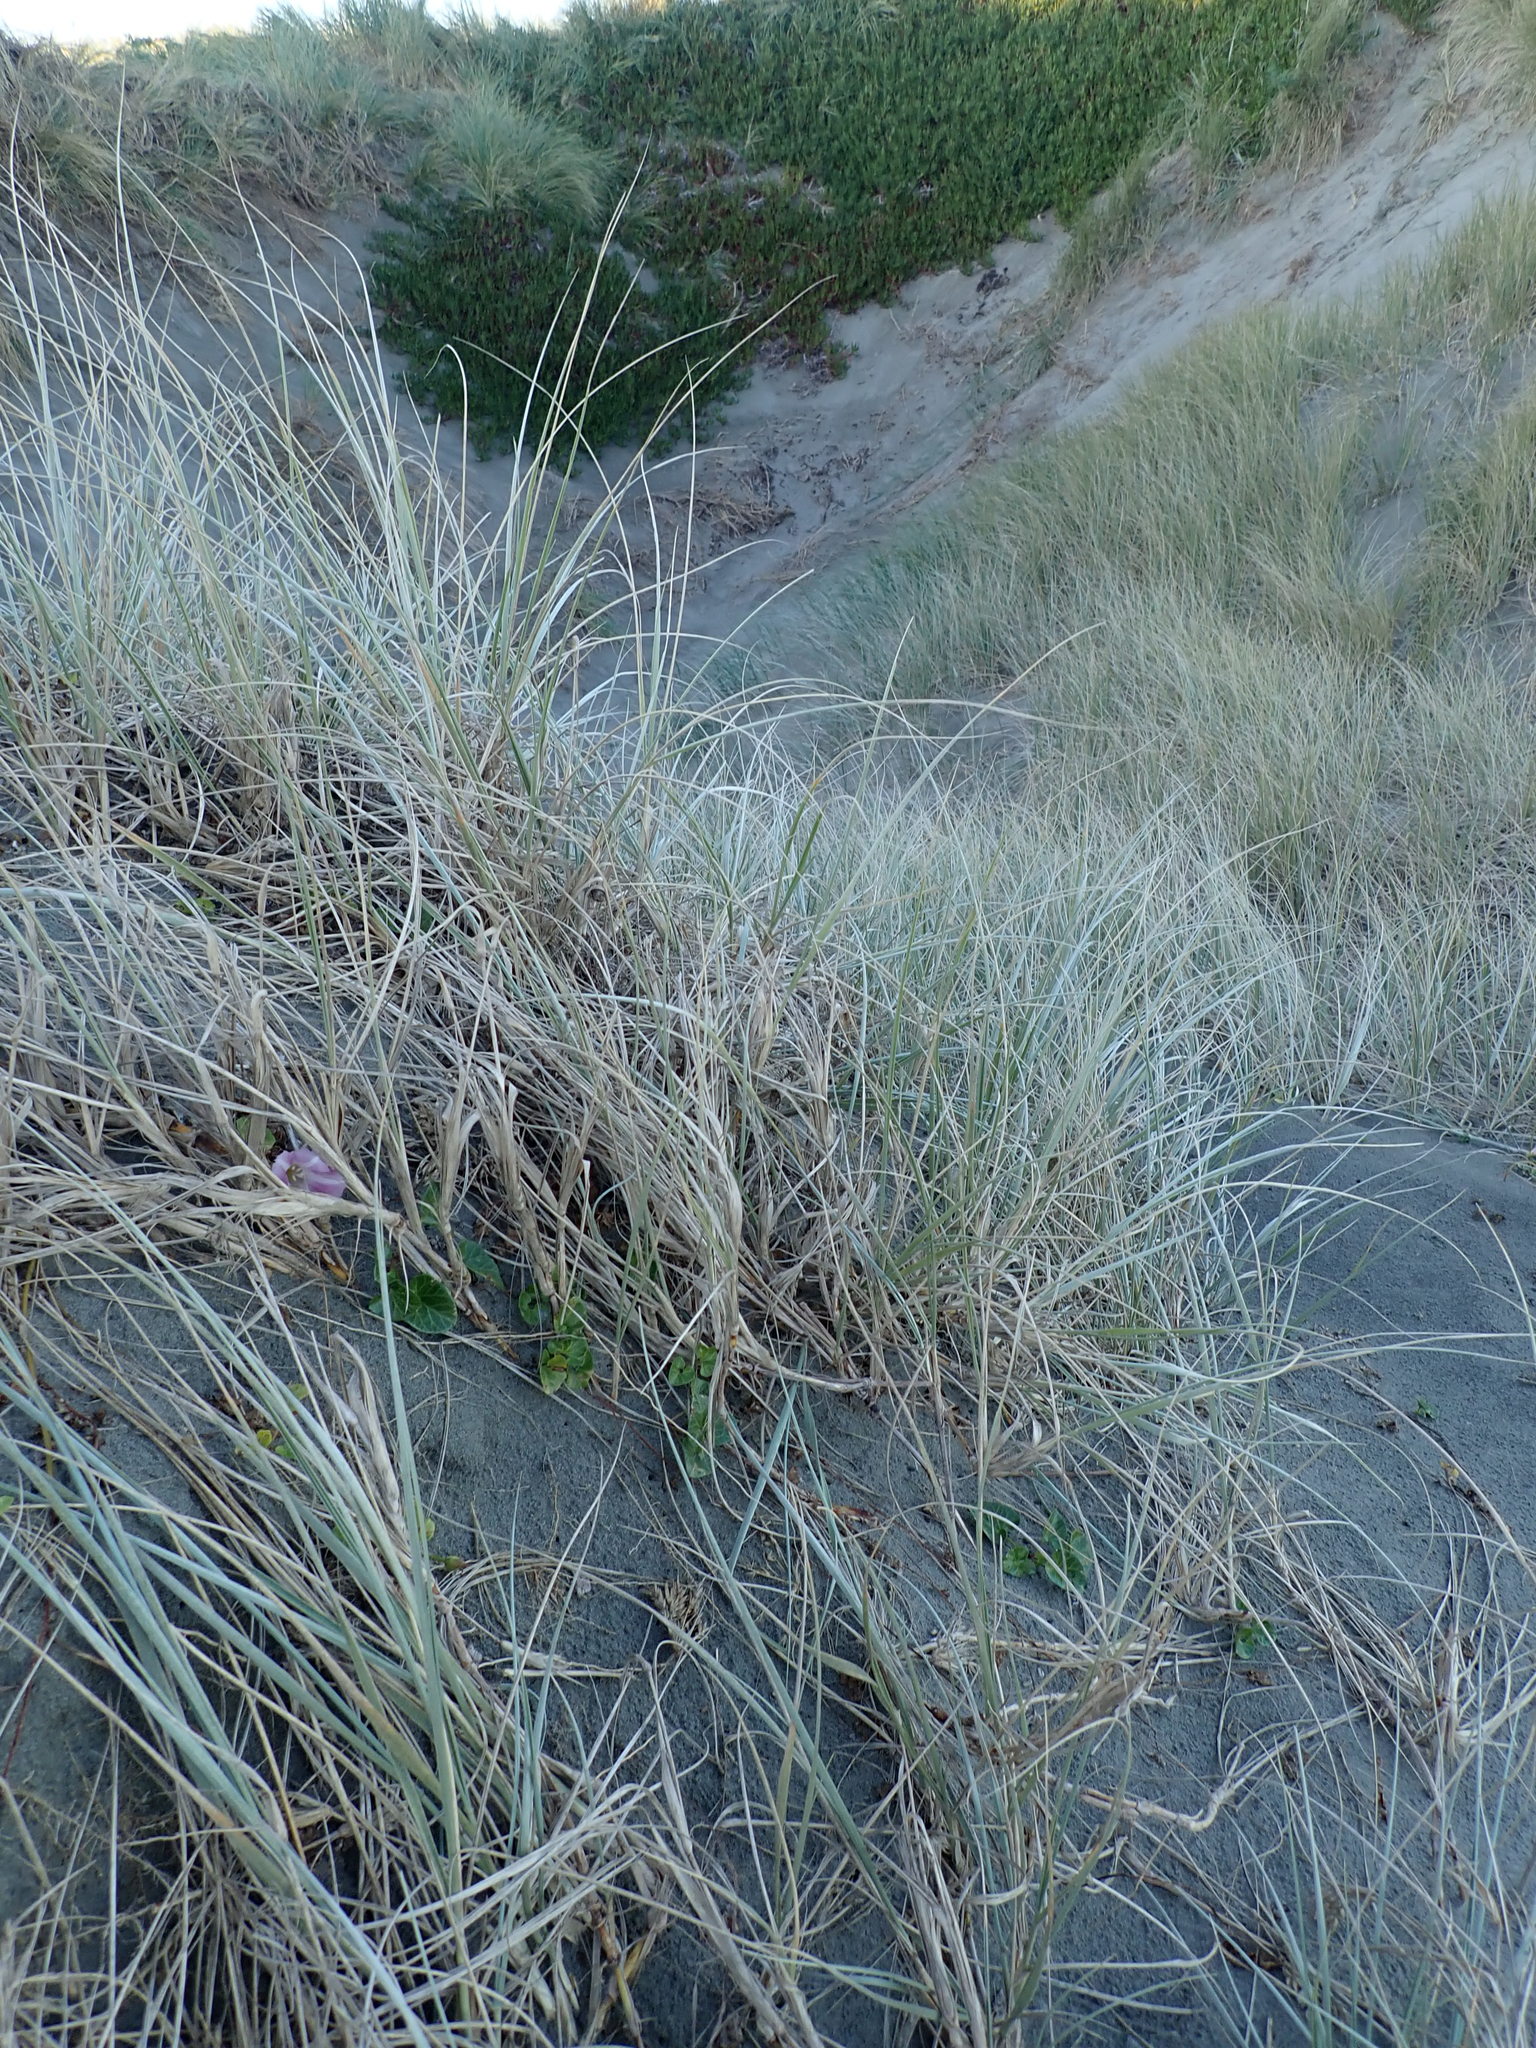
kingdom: Plantae
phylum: Tracheophyta
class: Magnoliopsida
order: Solanales
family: Convolvulaceae
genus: Calystegia
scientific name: Calystegia soldanella
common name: Sea bindweed
